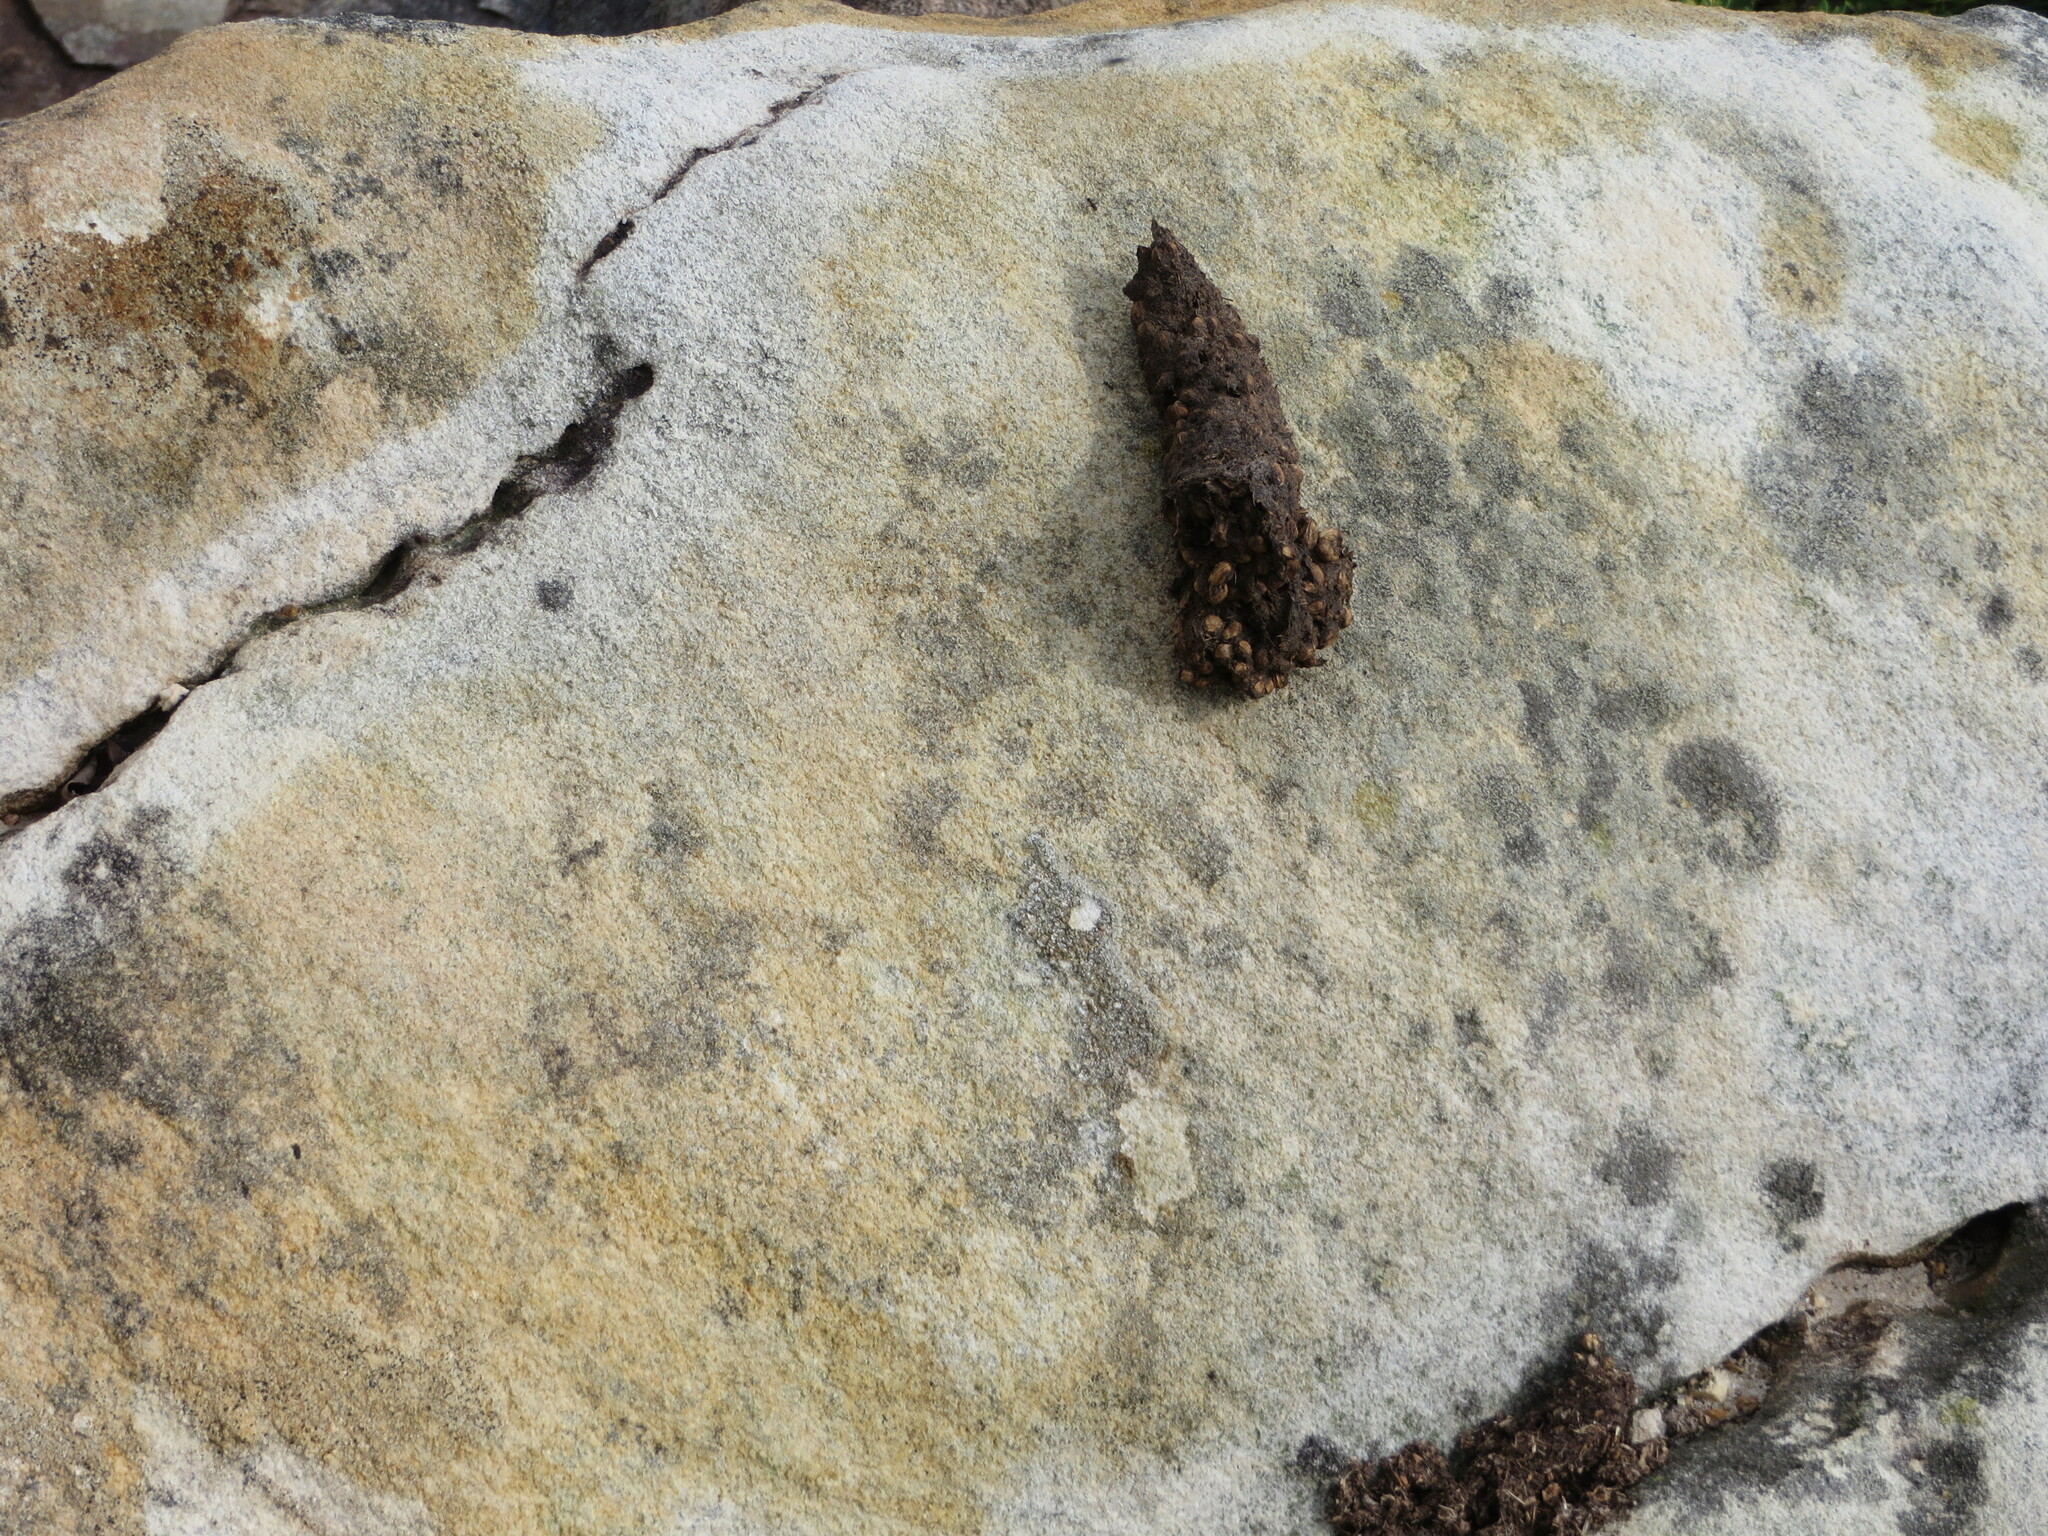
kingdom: Animalia
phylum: Chordata
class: Mammalia
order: Primates
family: Cercopithecidae
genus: Papio
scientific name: Papio ursinus
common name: Chacma baboon
